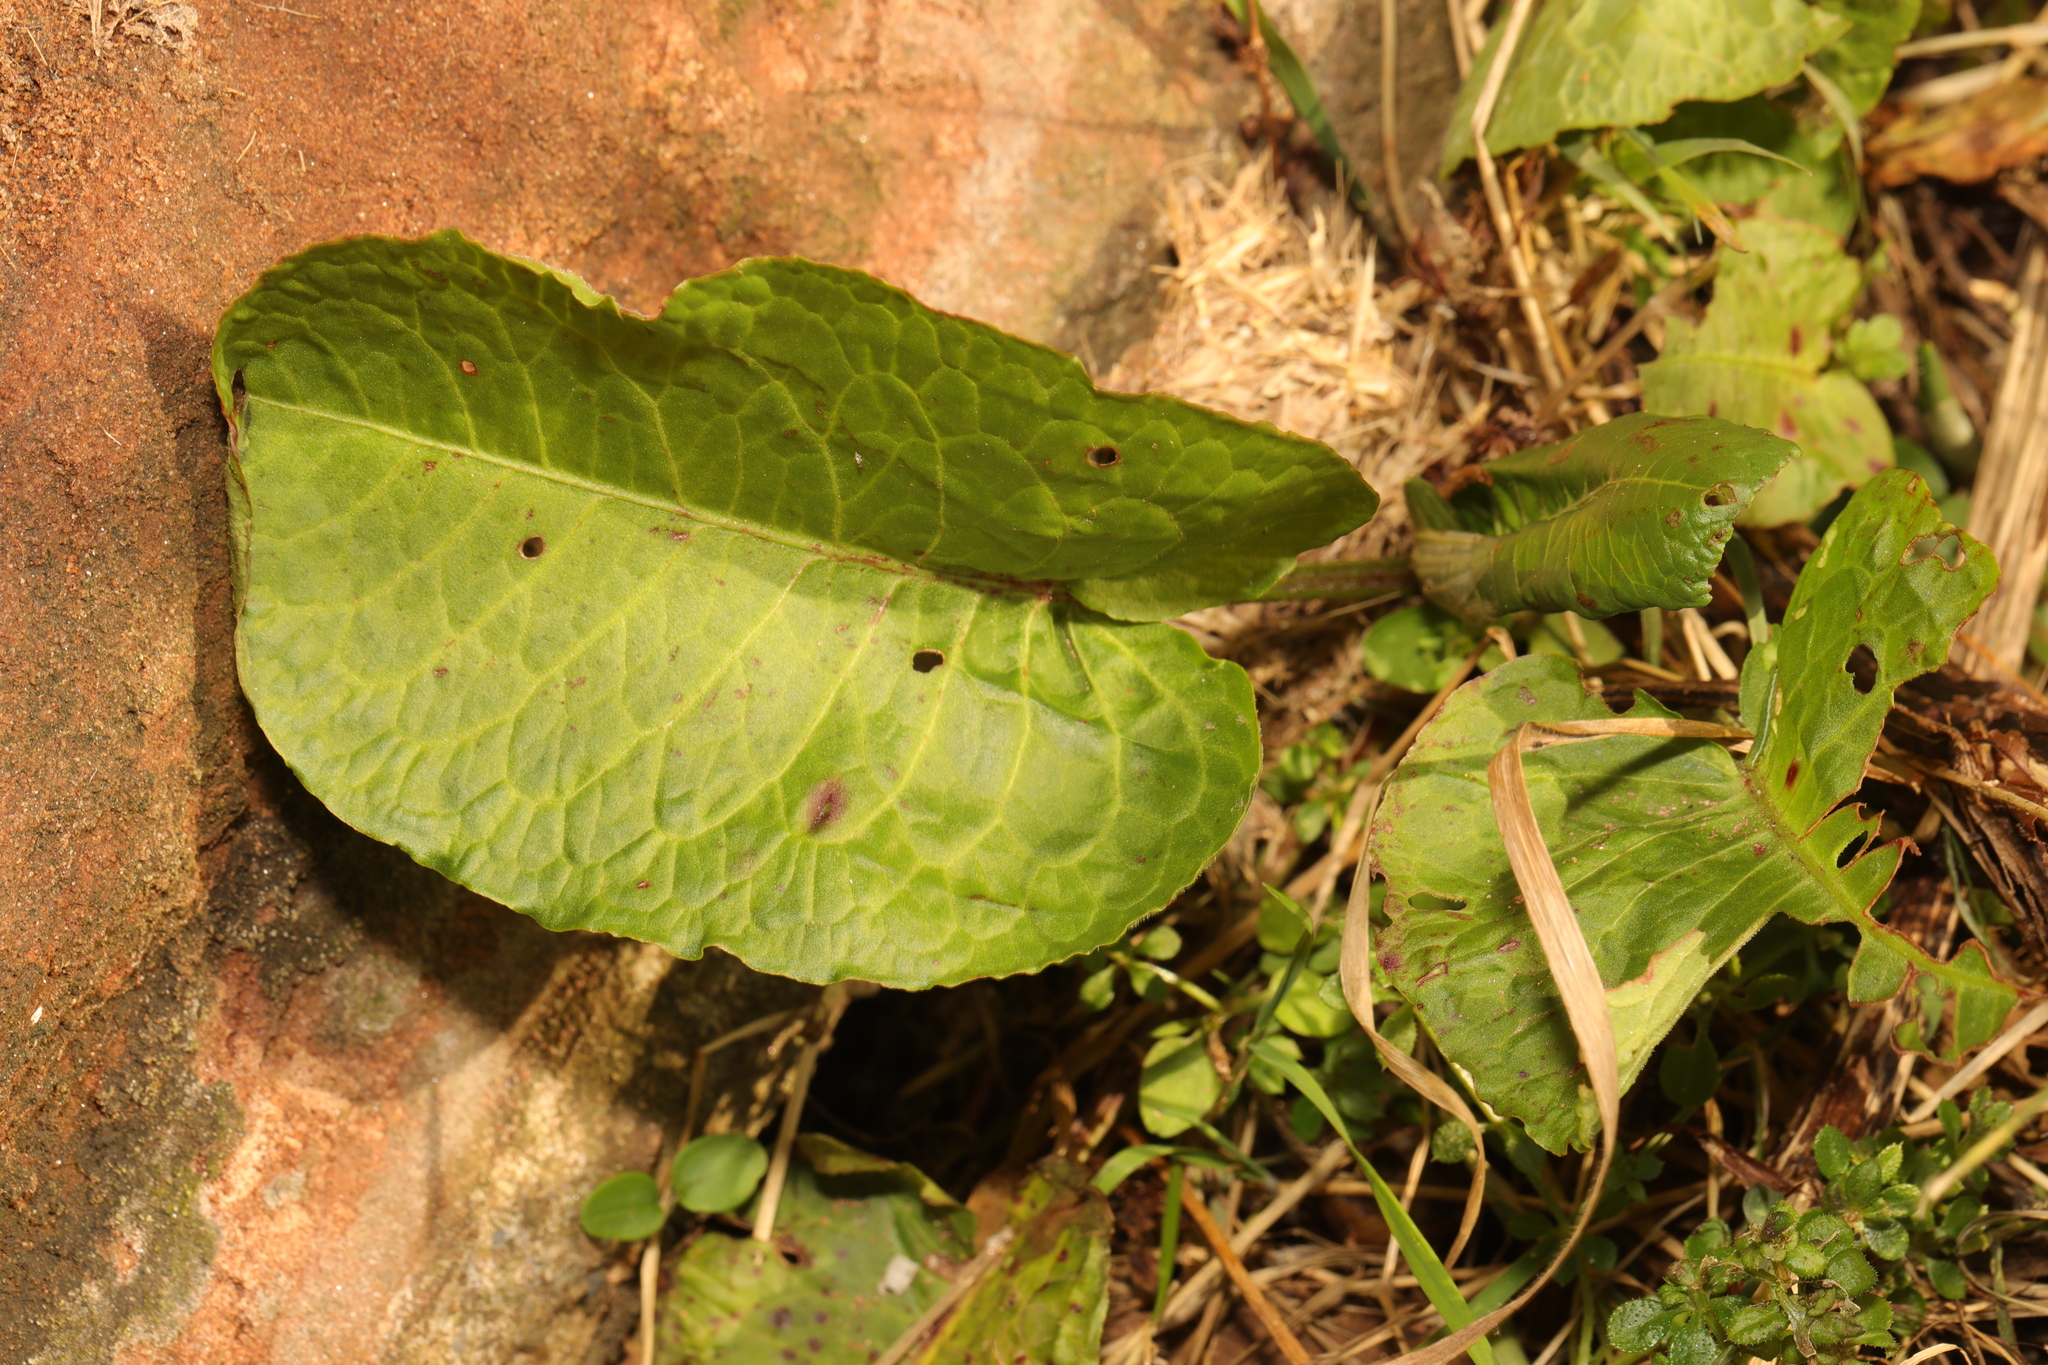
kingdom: Plantae
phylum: Tracheophyta
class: Magnoliopsida
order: Caryophyllales
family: Polygonaceae
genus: Rumex
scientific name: Rumex obtusifolius
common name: Bitter dock
